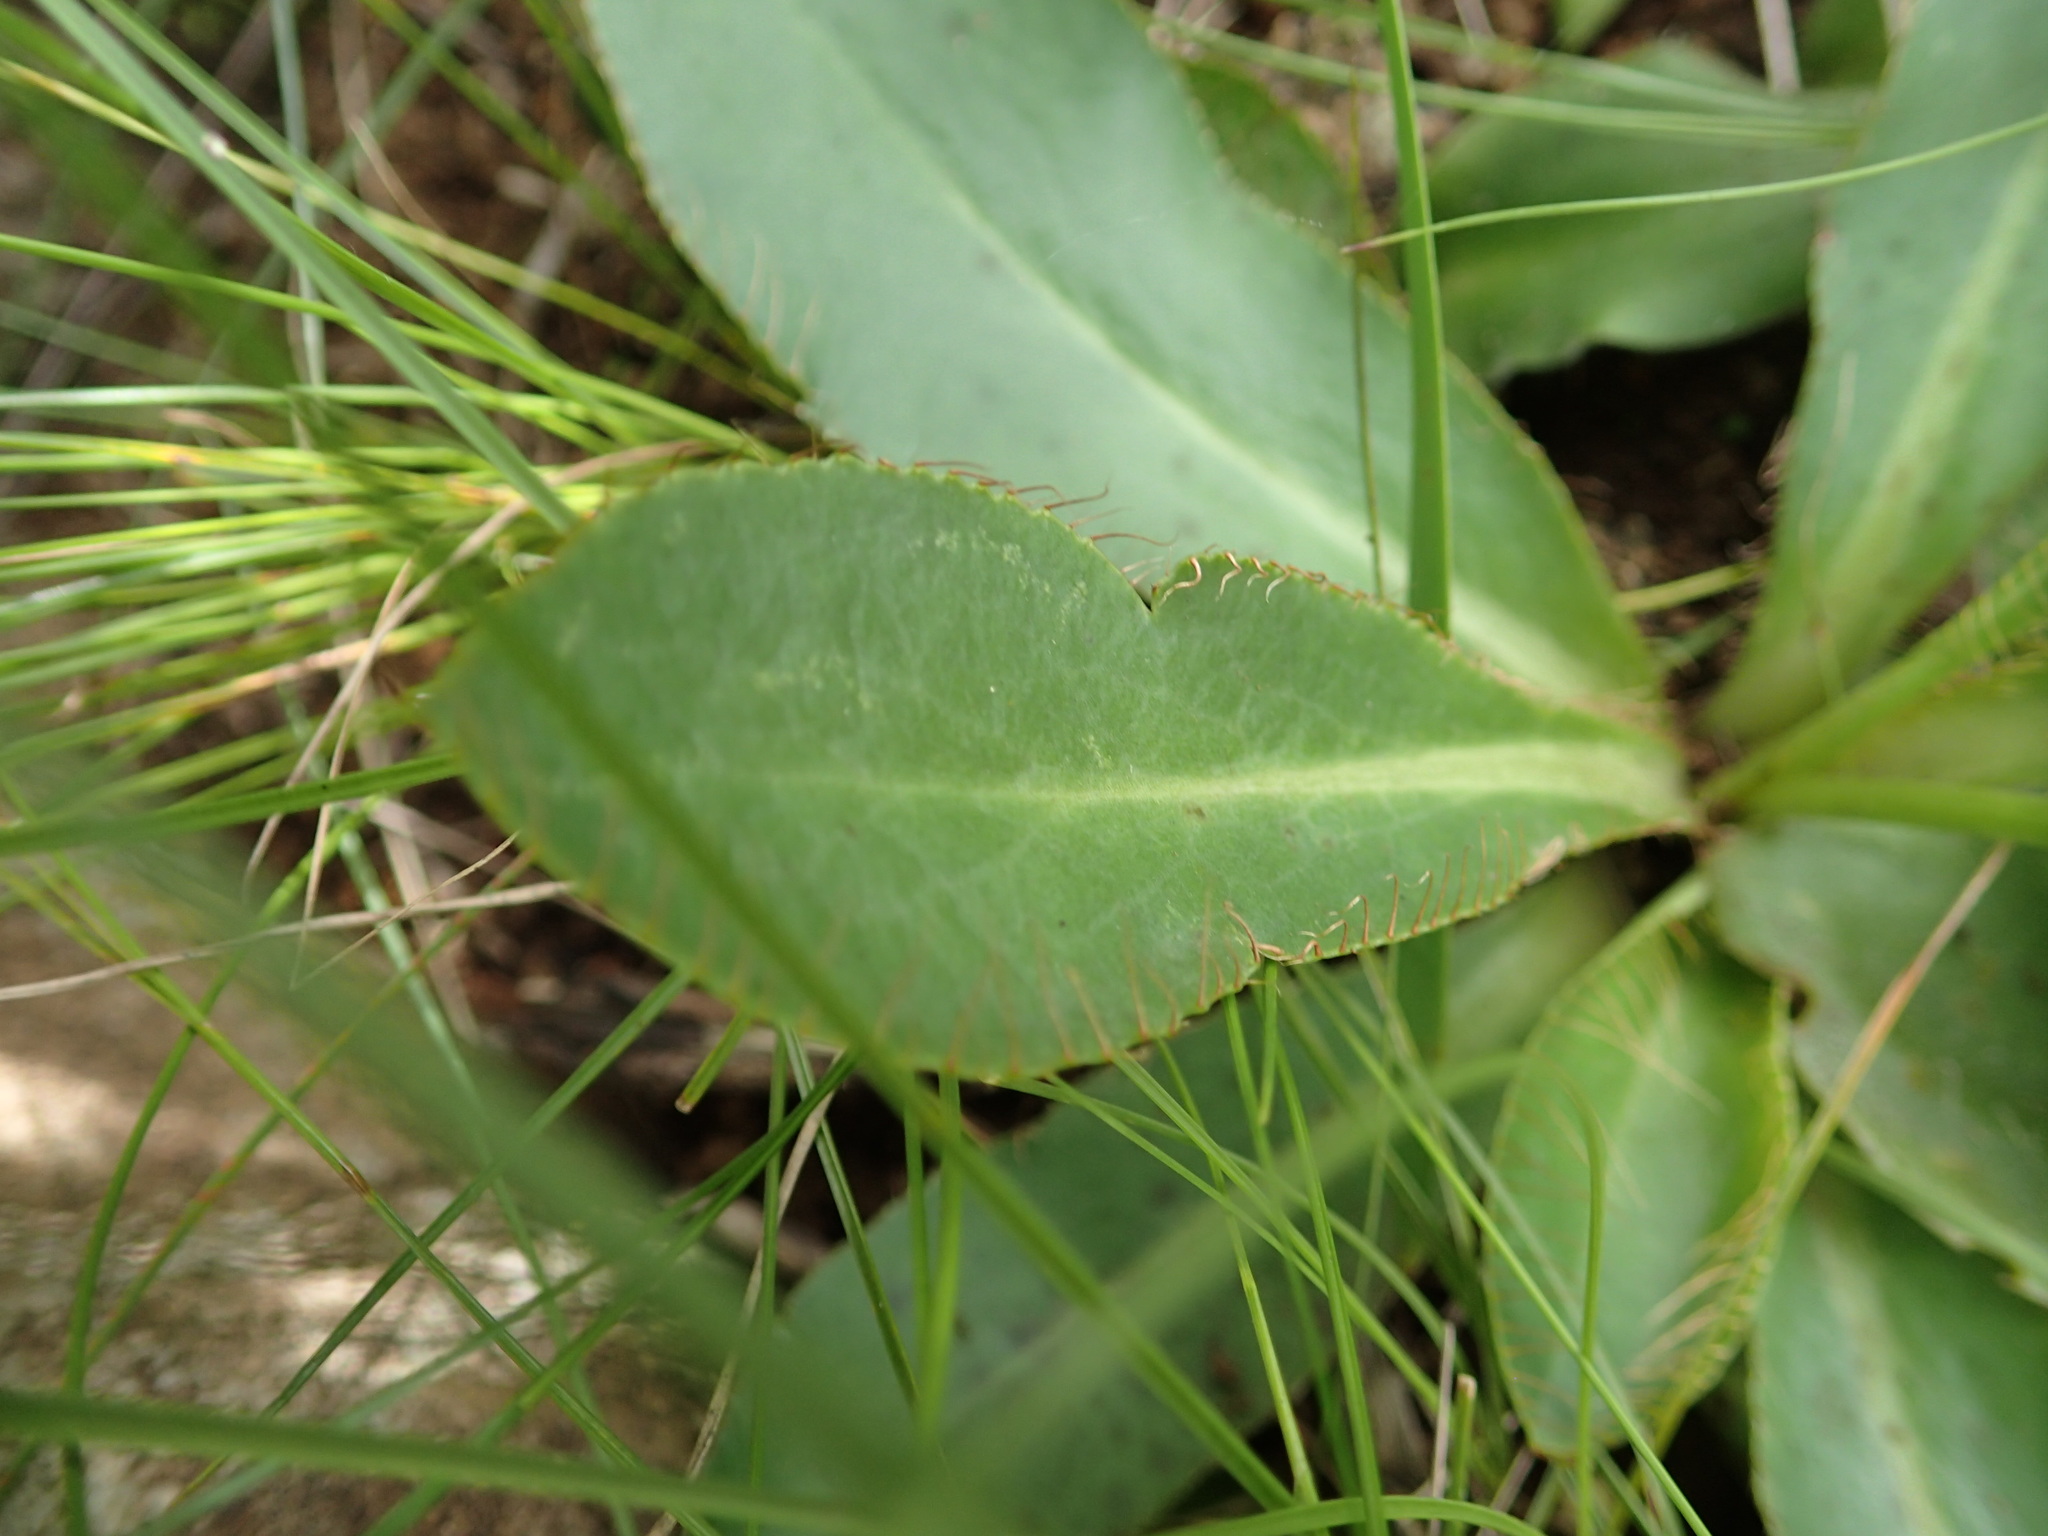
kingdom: Plantae
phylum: Tracheophyta
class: Magnoliopsida
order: Apiales
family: Apiaceae
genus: Alepidea
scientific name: Alepidea natalensis
